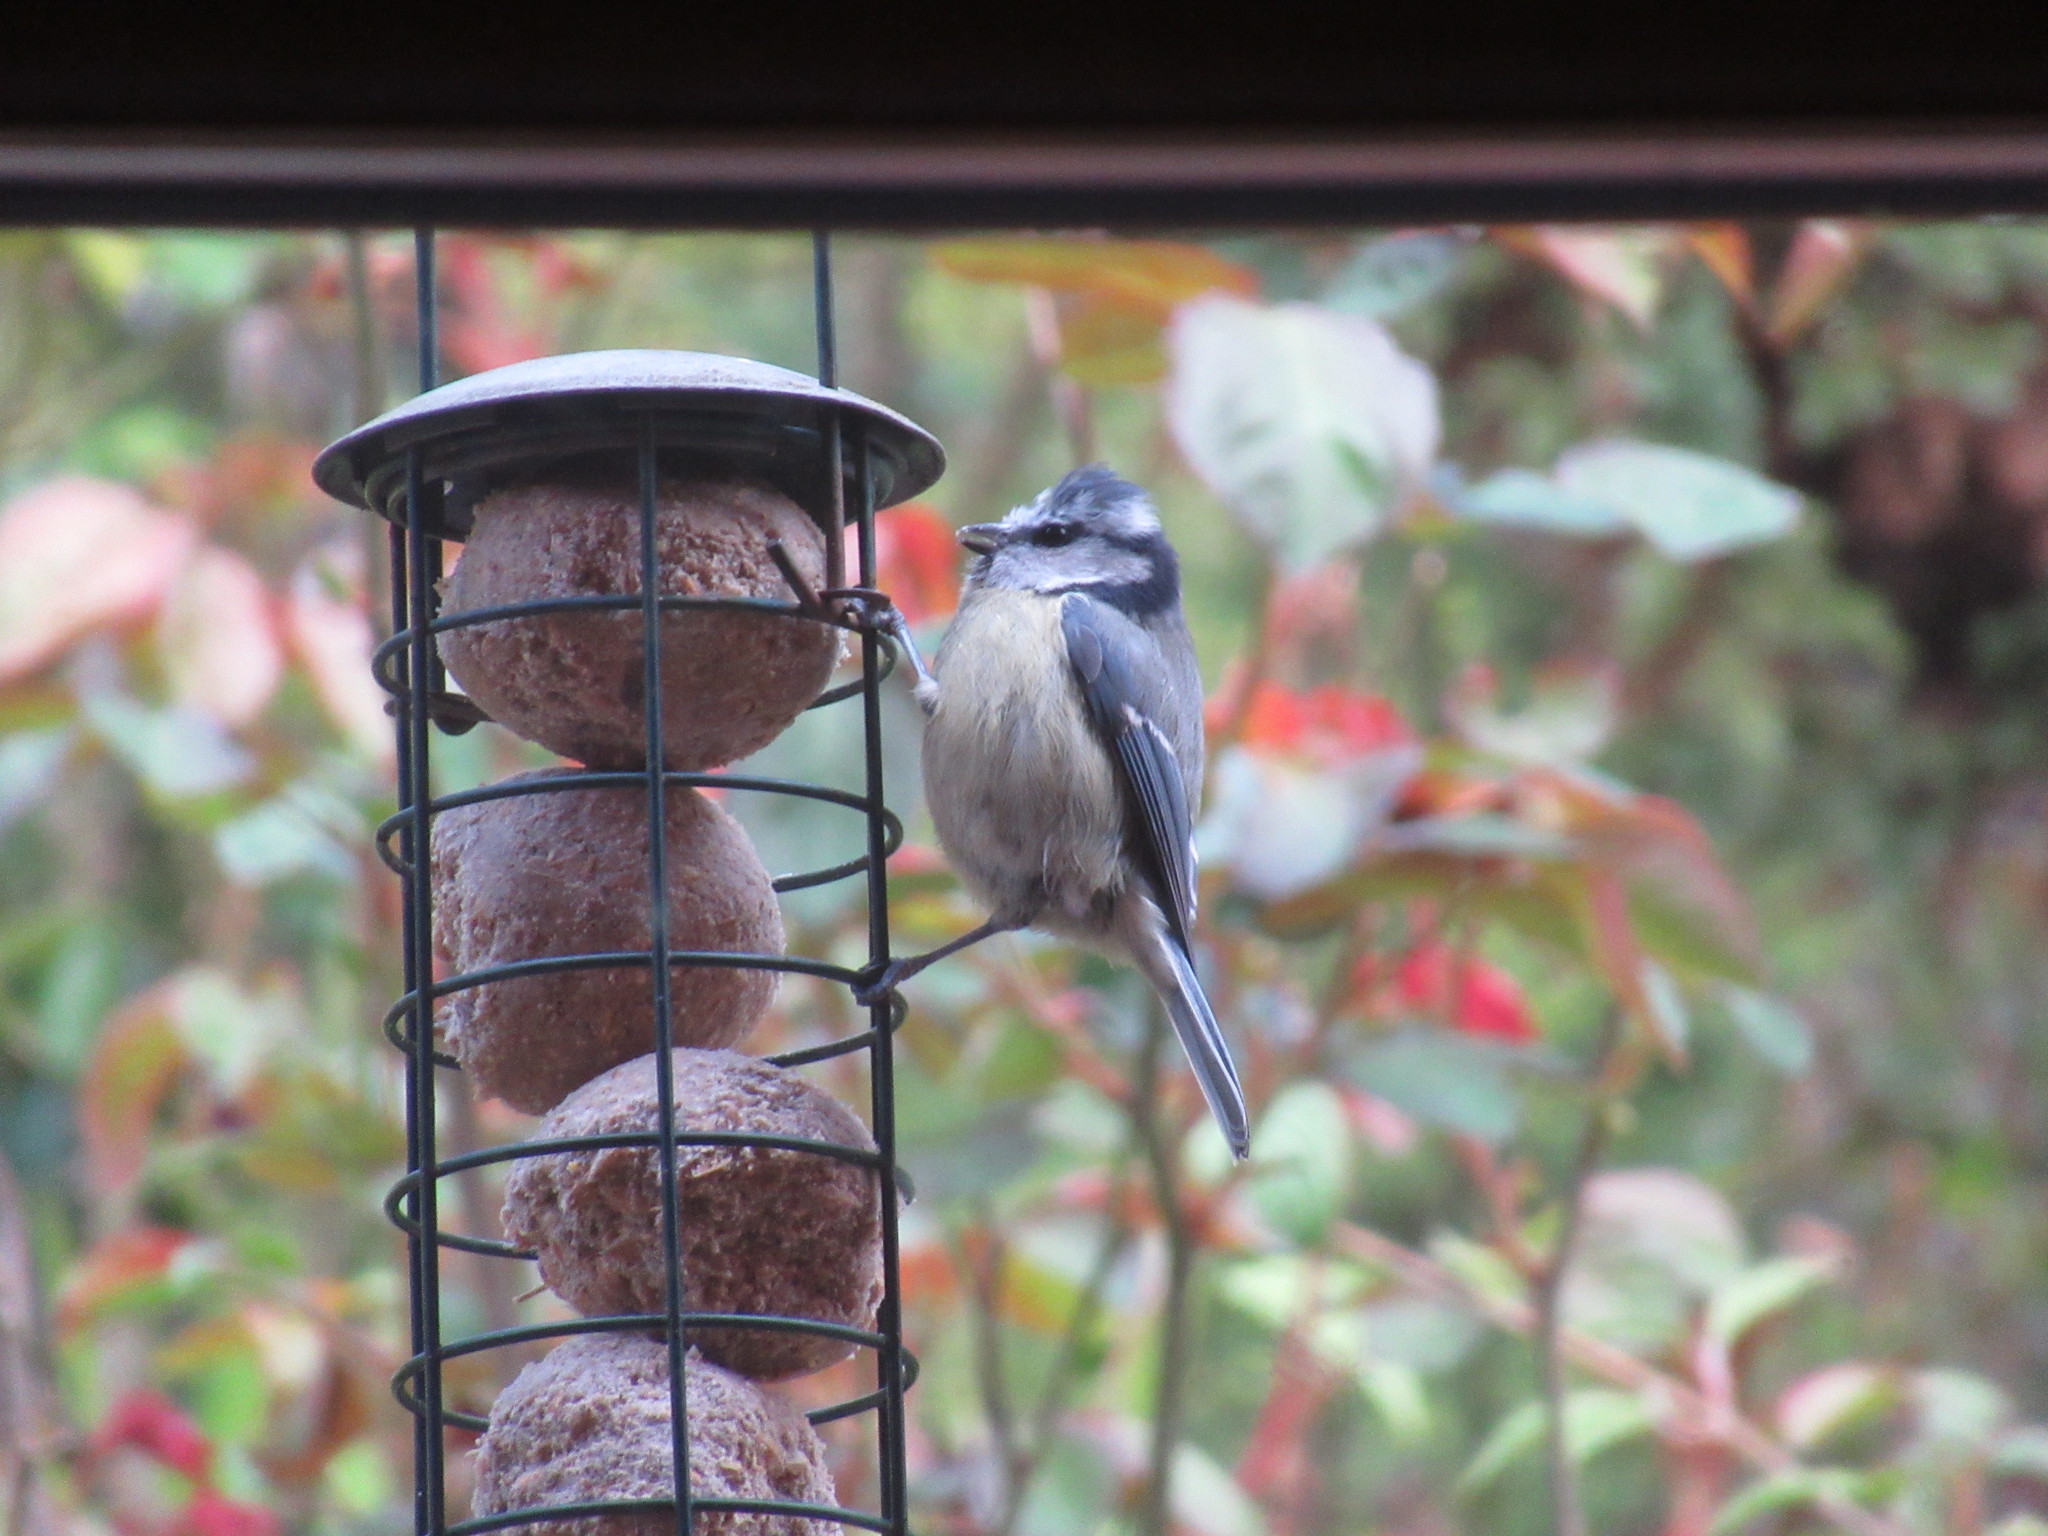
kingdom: Animalia
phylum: Chordata
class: Aves
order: Passeriformes
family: Paridae
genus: Cyanistes
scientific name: Cyanistes caeruleus
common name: Eurasian blue tit
